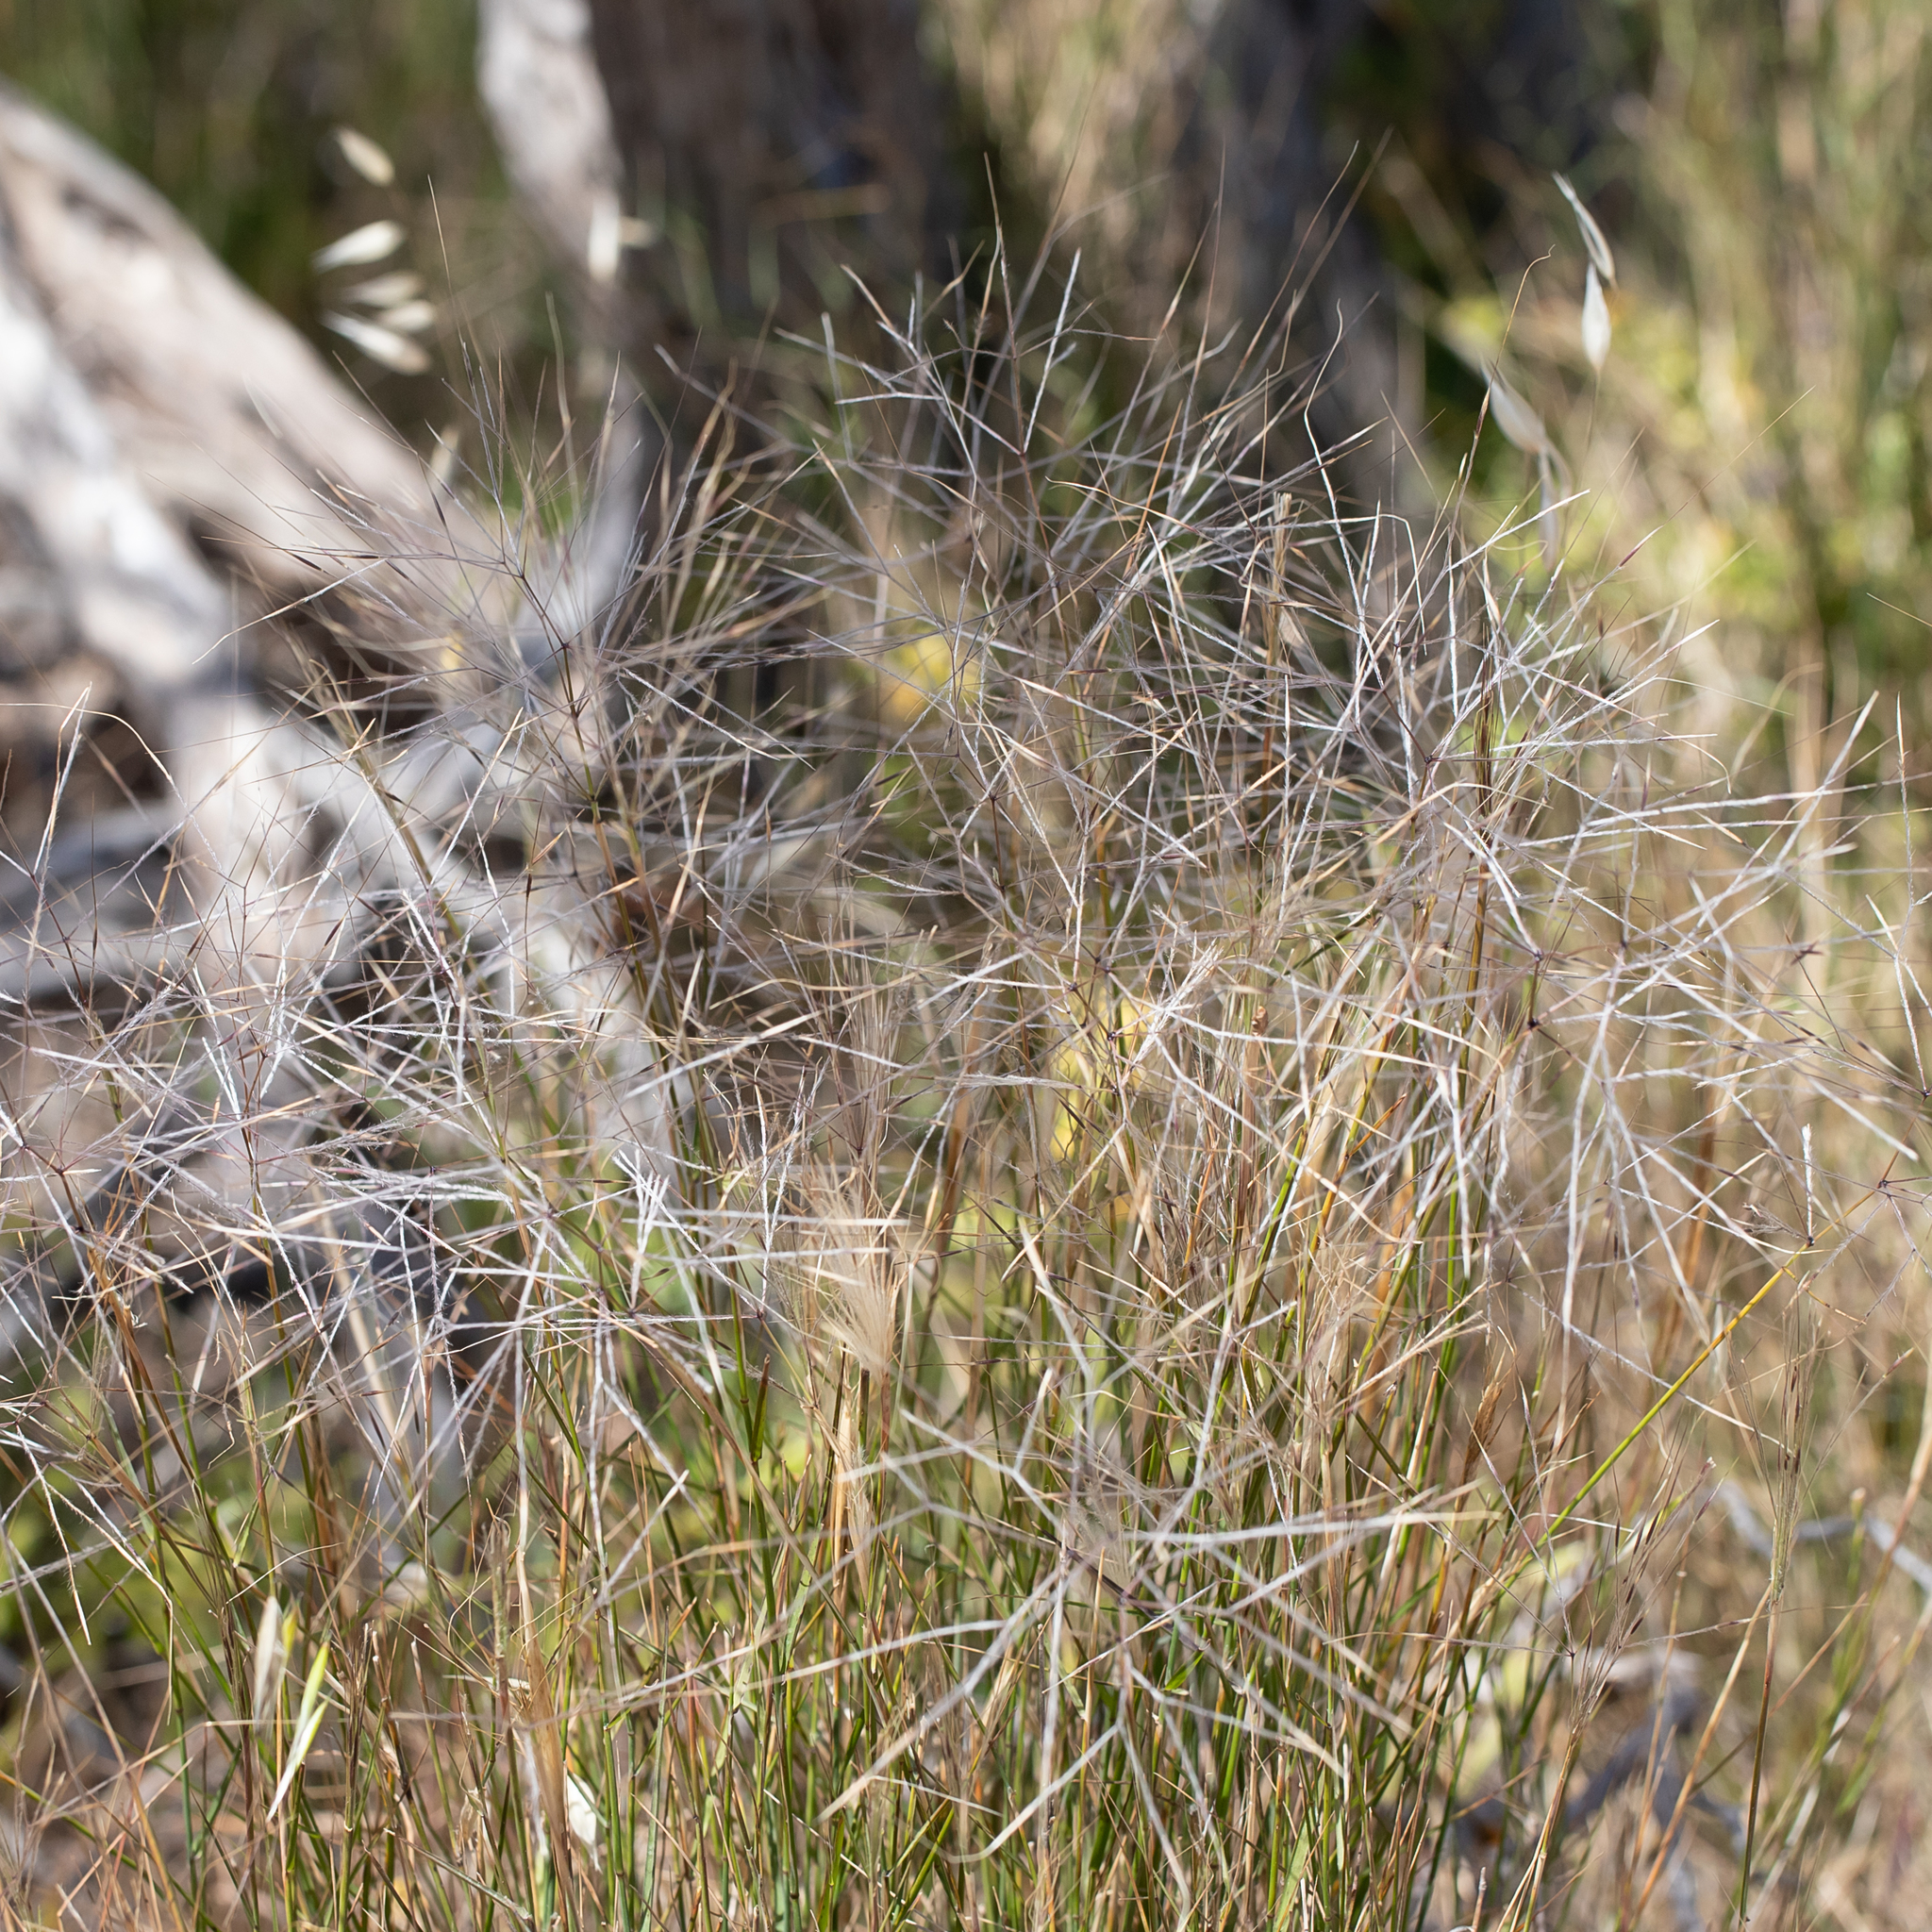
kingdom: Plantae
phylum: Tracheophyta
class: Liliopsida
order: Poales
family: Poaceae
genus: Austrostipa
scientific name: Austrostipa elegantissima
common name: Feather spear grass
